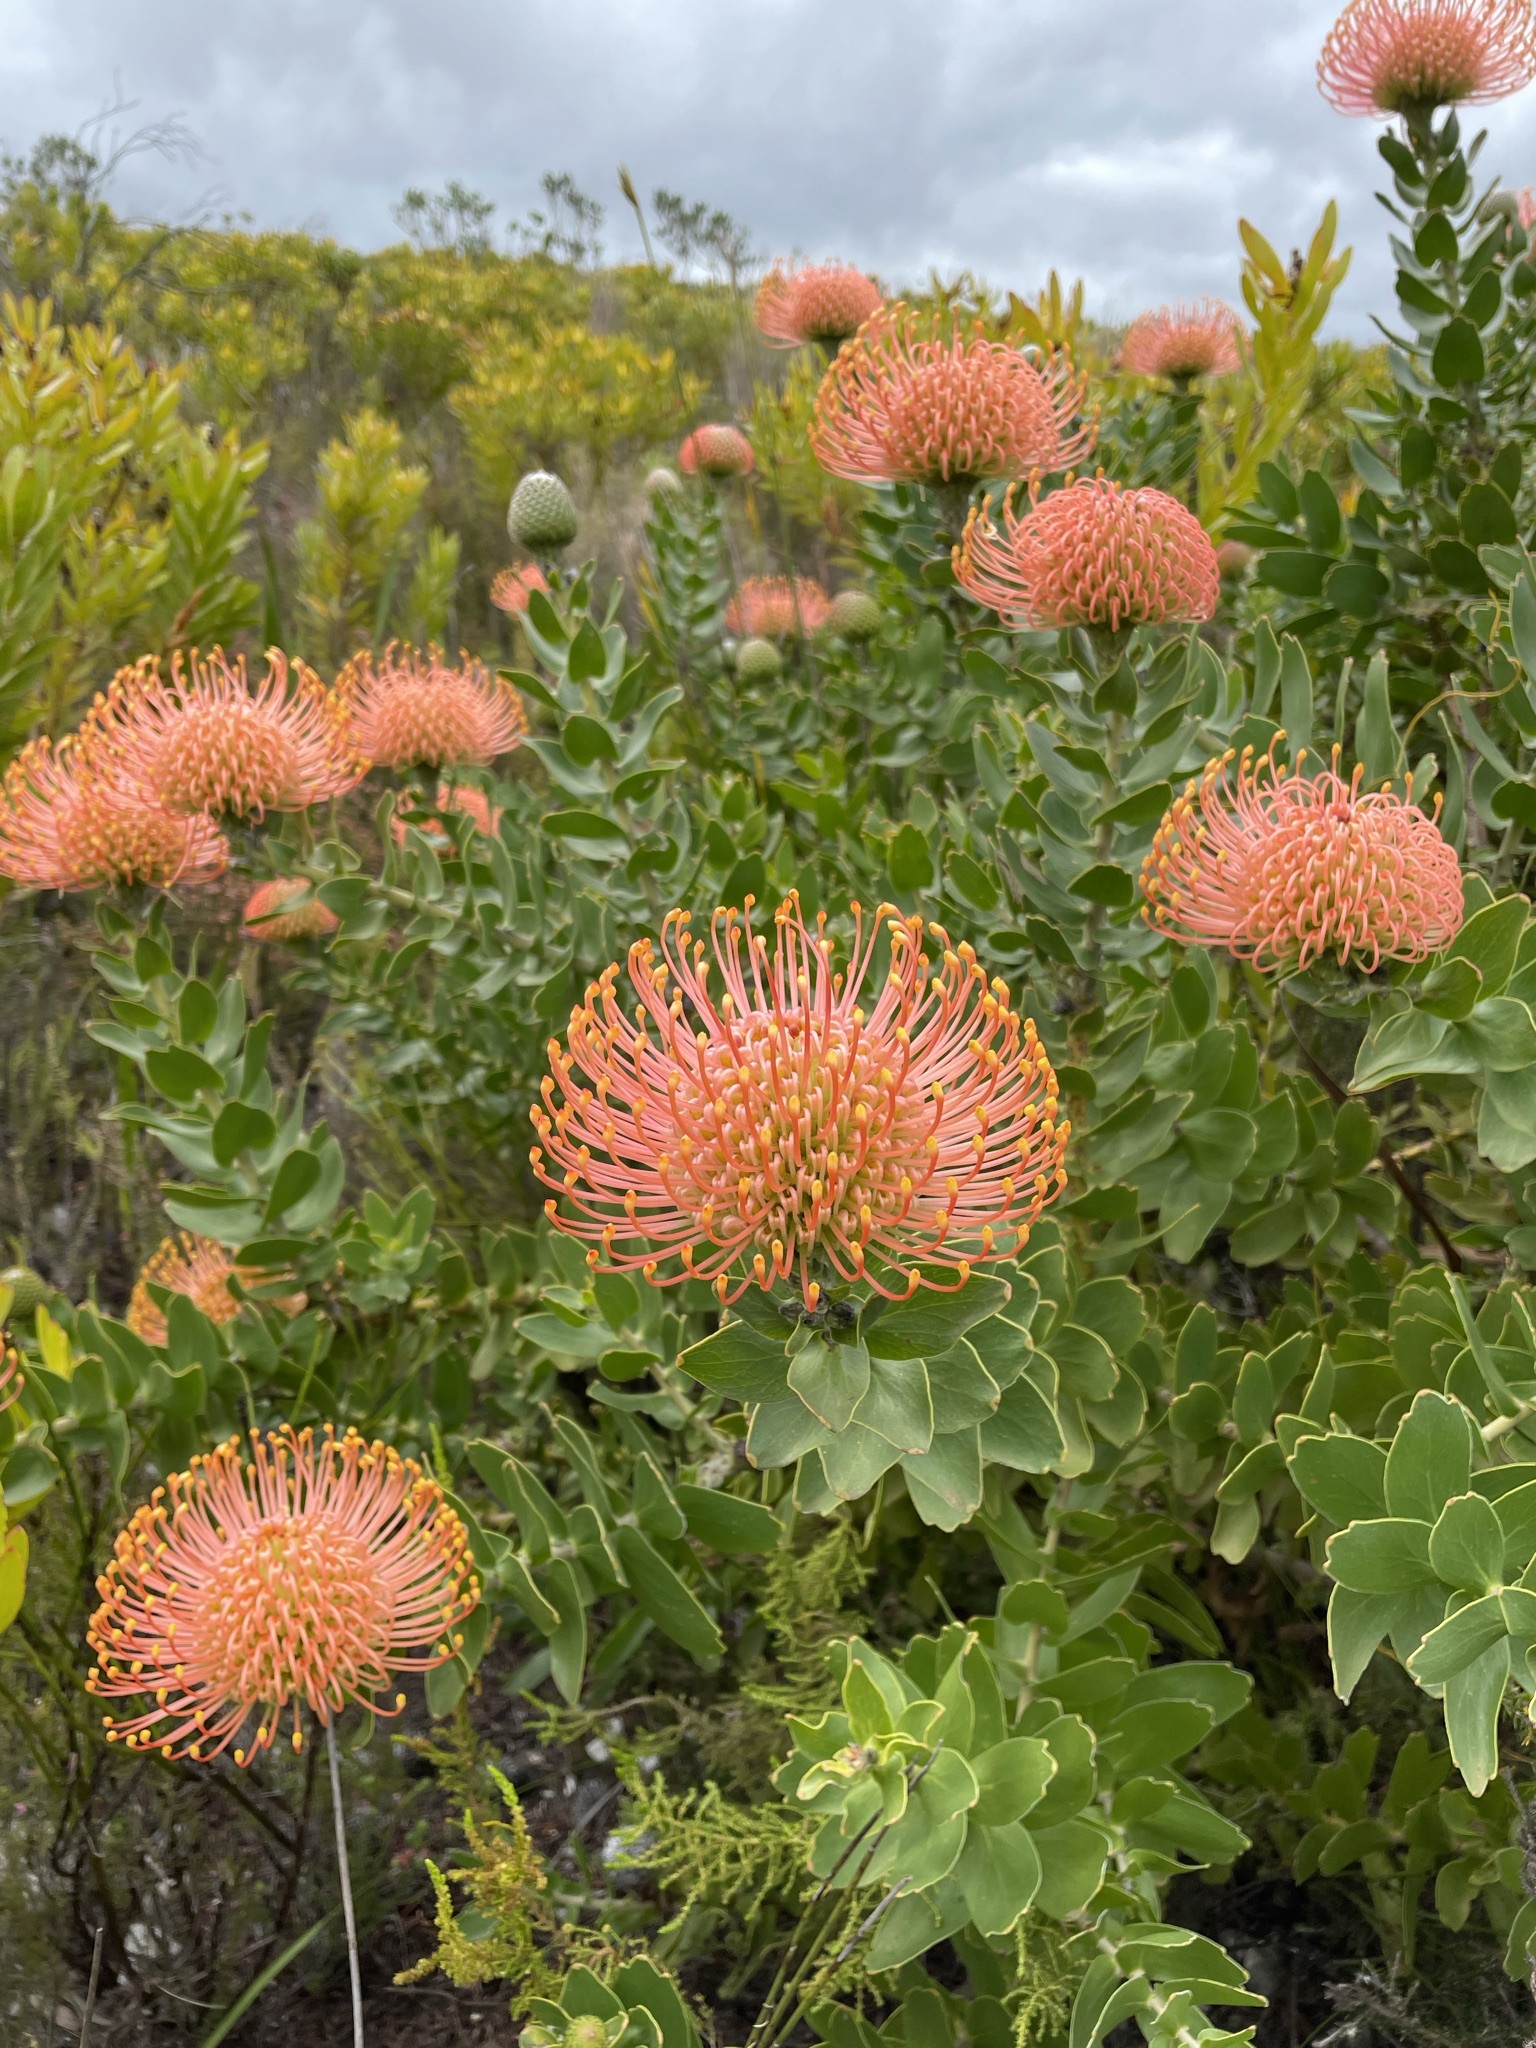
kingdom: Plantae
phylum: Tracheophyta
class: Magnoliopsida
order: Proteales
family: Proteaceae
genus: Leucospermum
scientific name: Leucospermum cordifolium
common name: Red pincushion-protea
